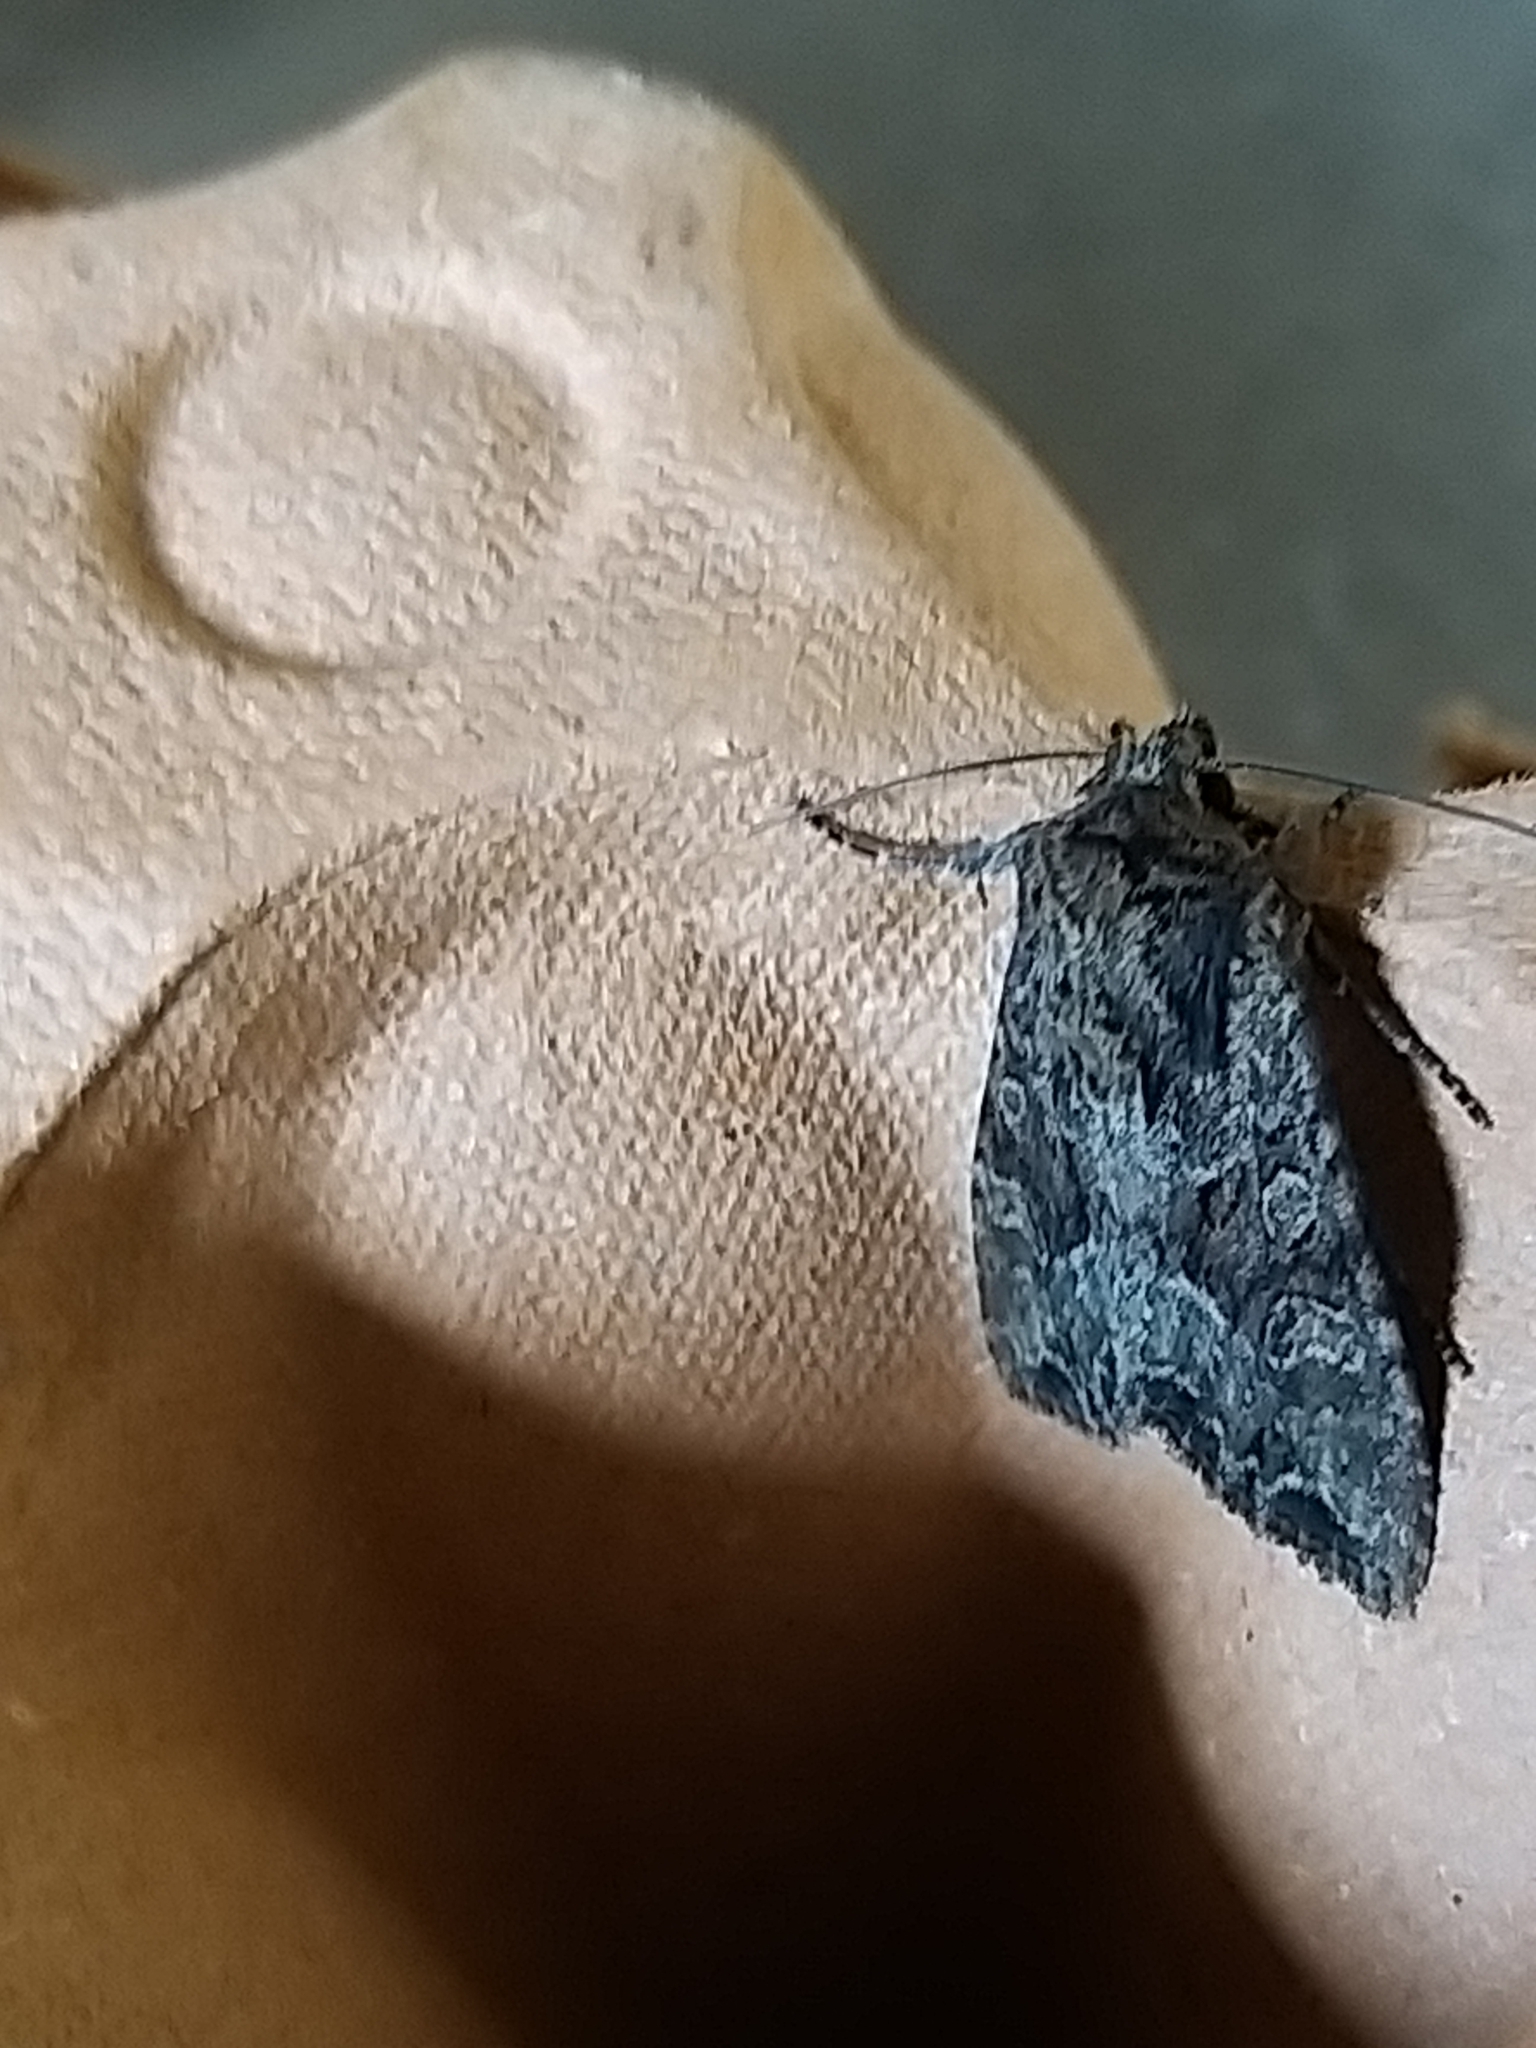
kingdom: Animalia
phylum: Arthropoda
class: Insecta
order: Lepidoptera
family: Noctuidae
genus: Lacanobia
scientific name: Lacanobia thalassina
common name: Pale-shouldered brocade
